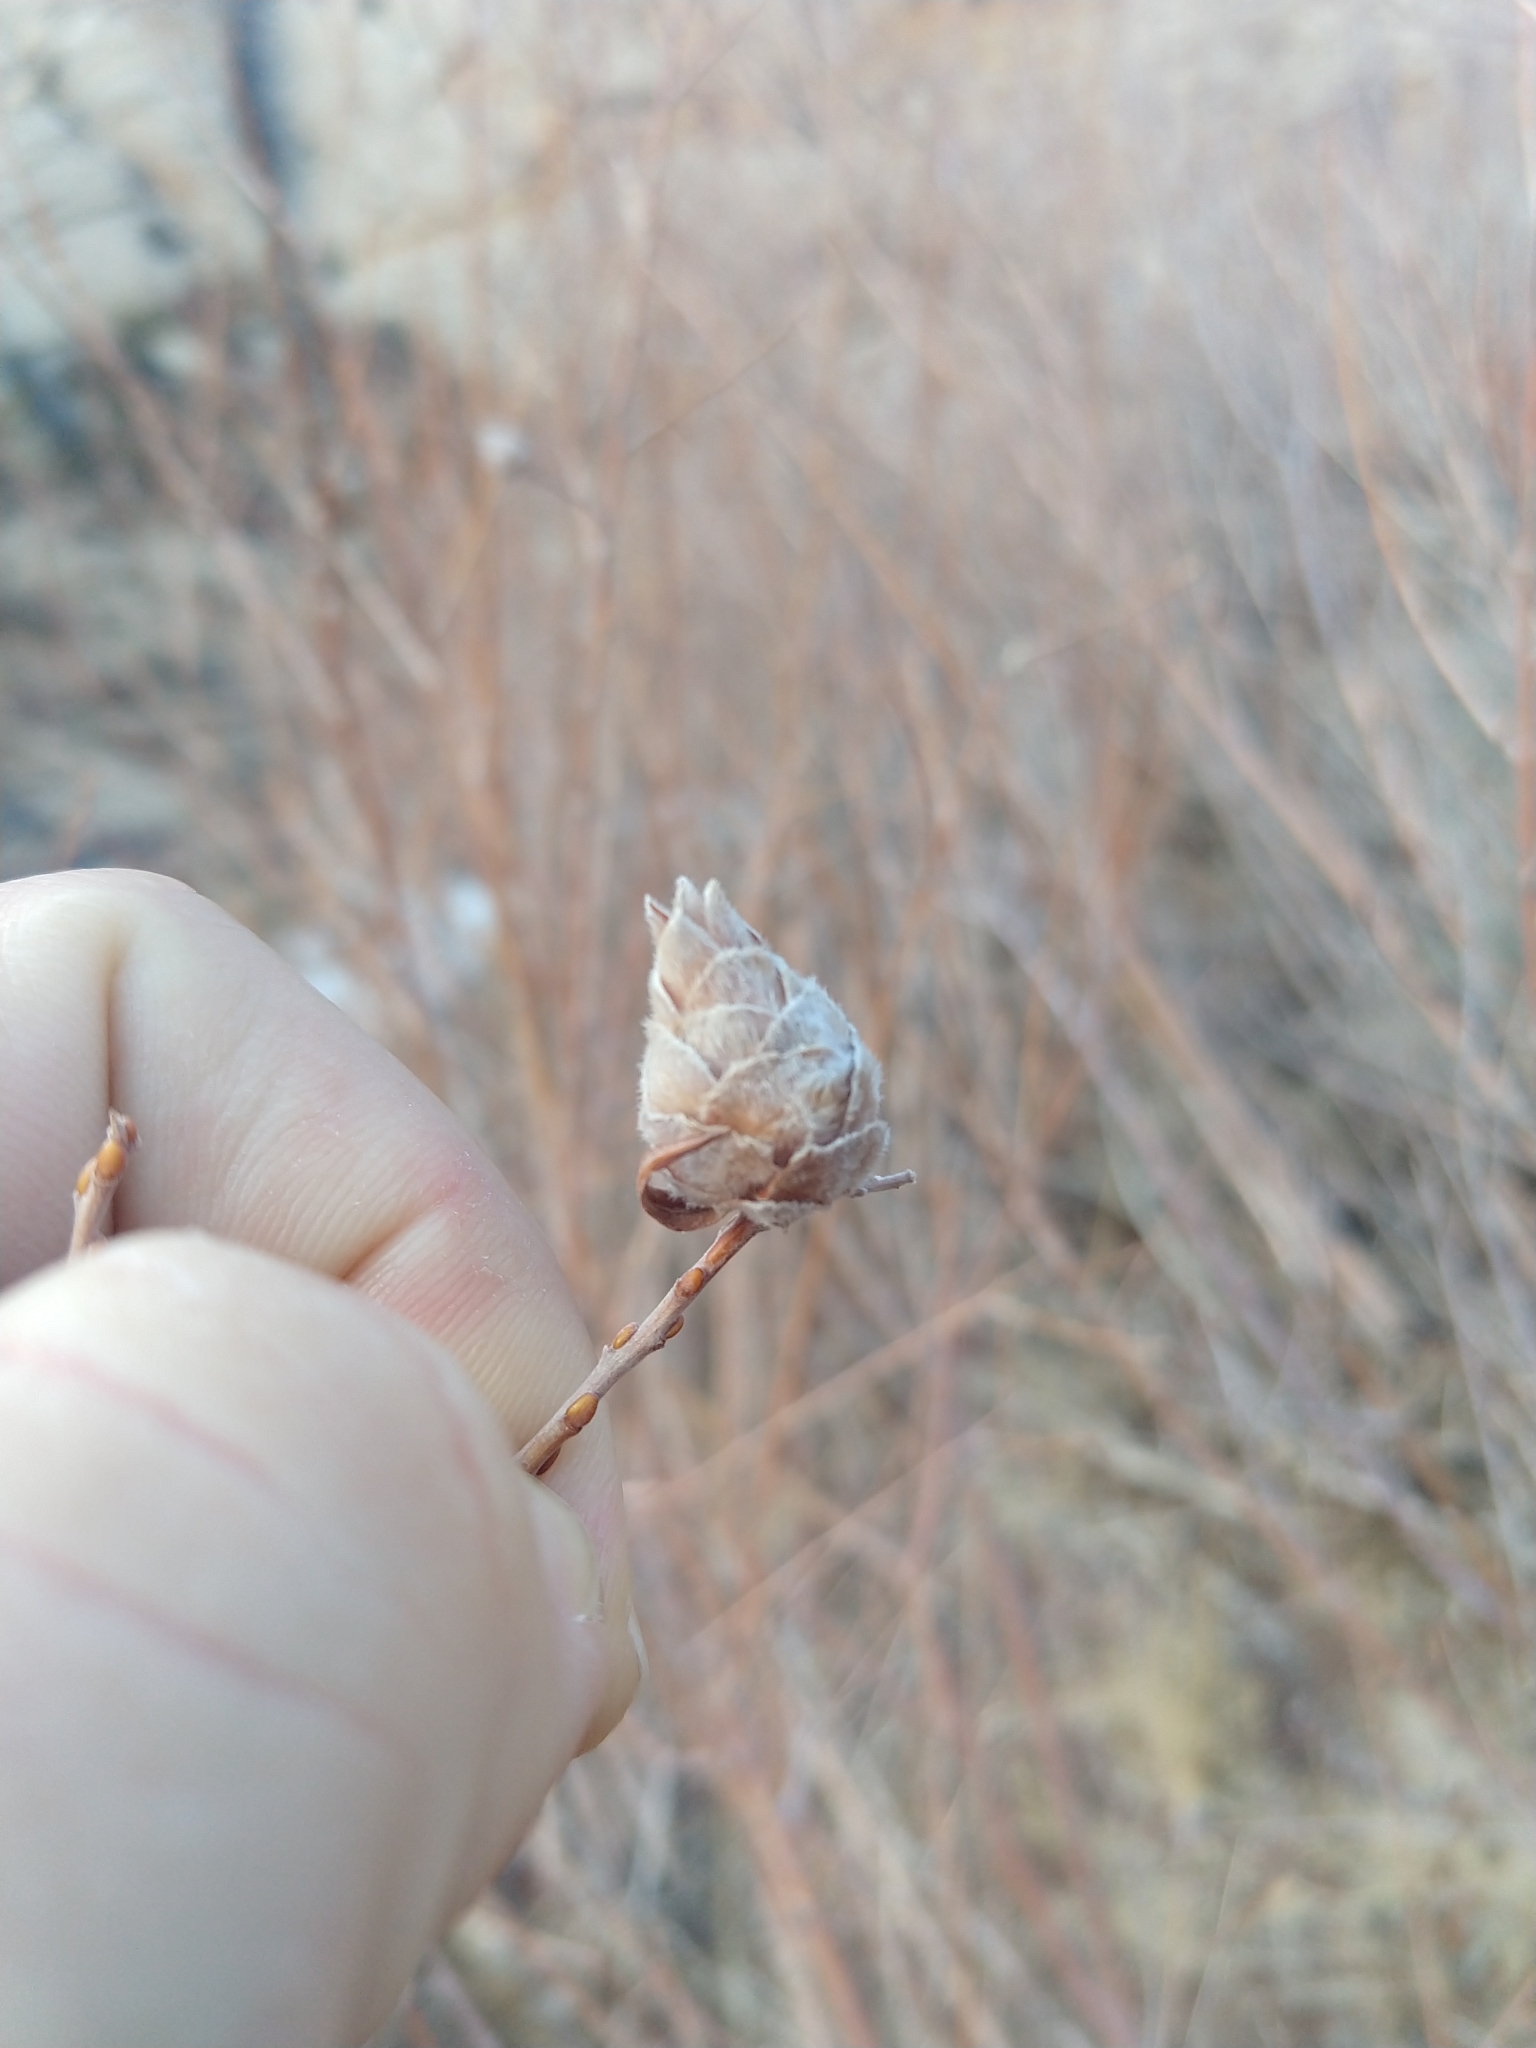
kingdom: Animalia
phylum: Arthropoda
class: Insecta
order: Diptera
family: Cecidomyiidae
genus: Rabdophaga
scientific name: Rabdophaga strobiloides
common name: Willow pinecone gall midge
